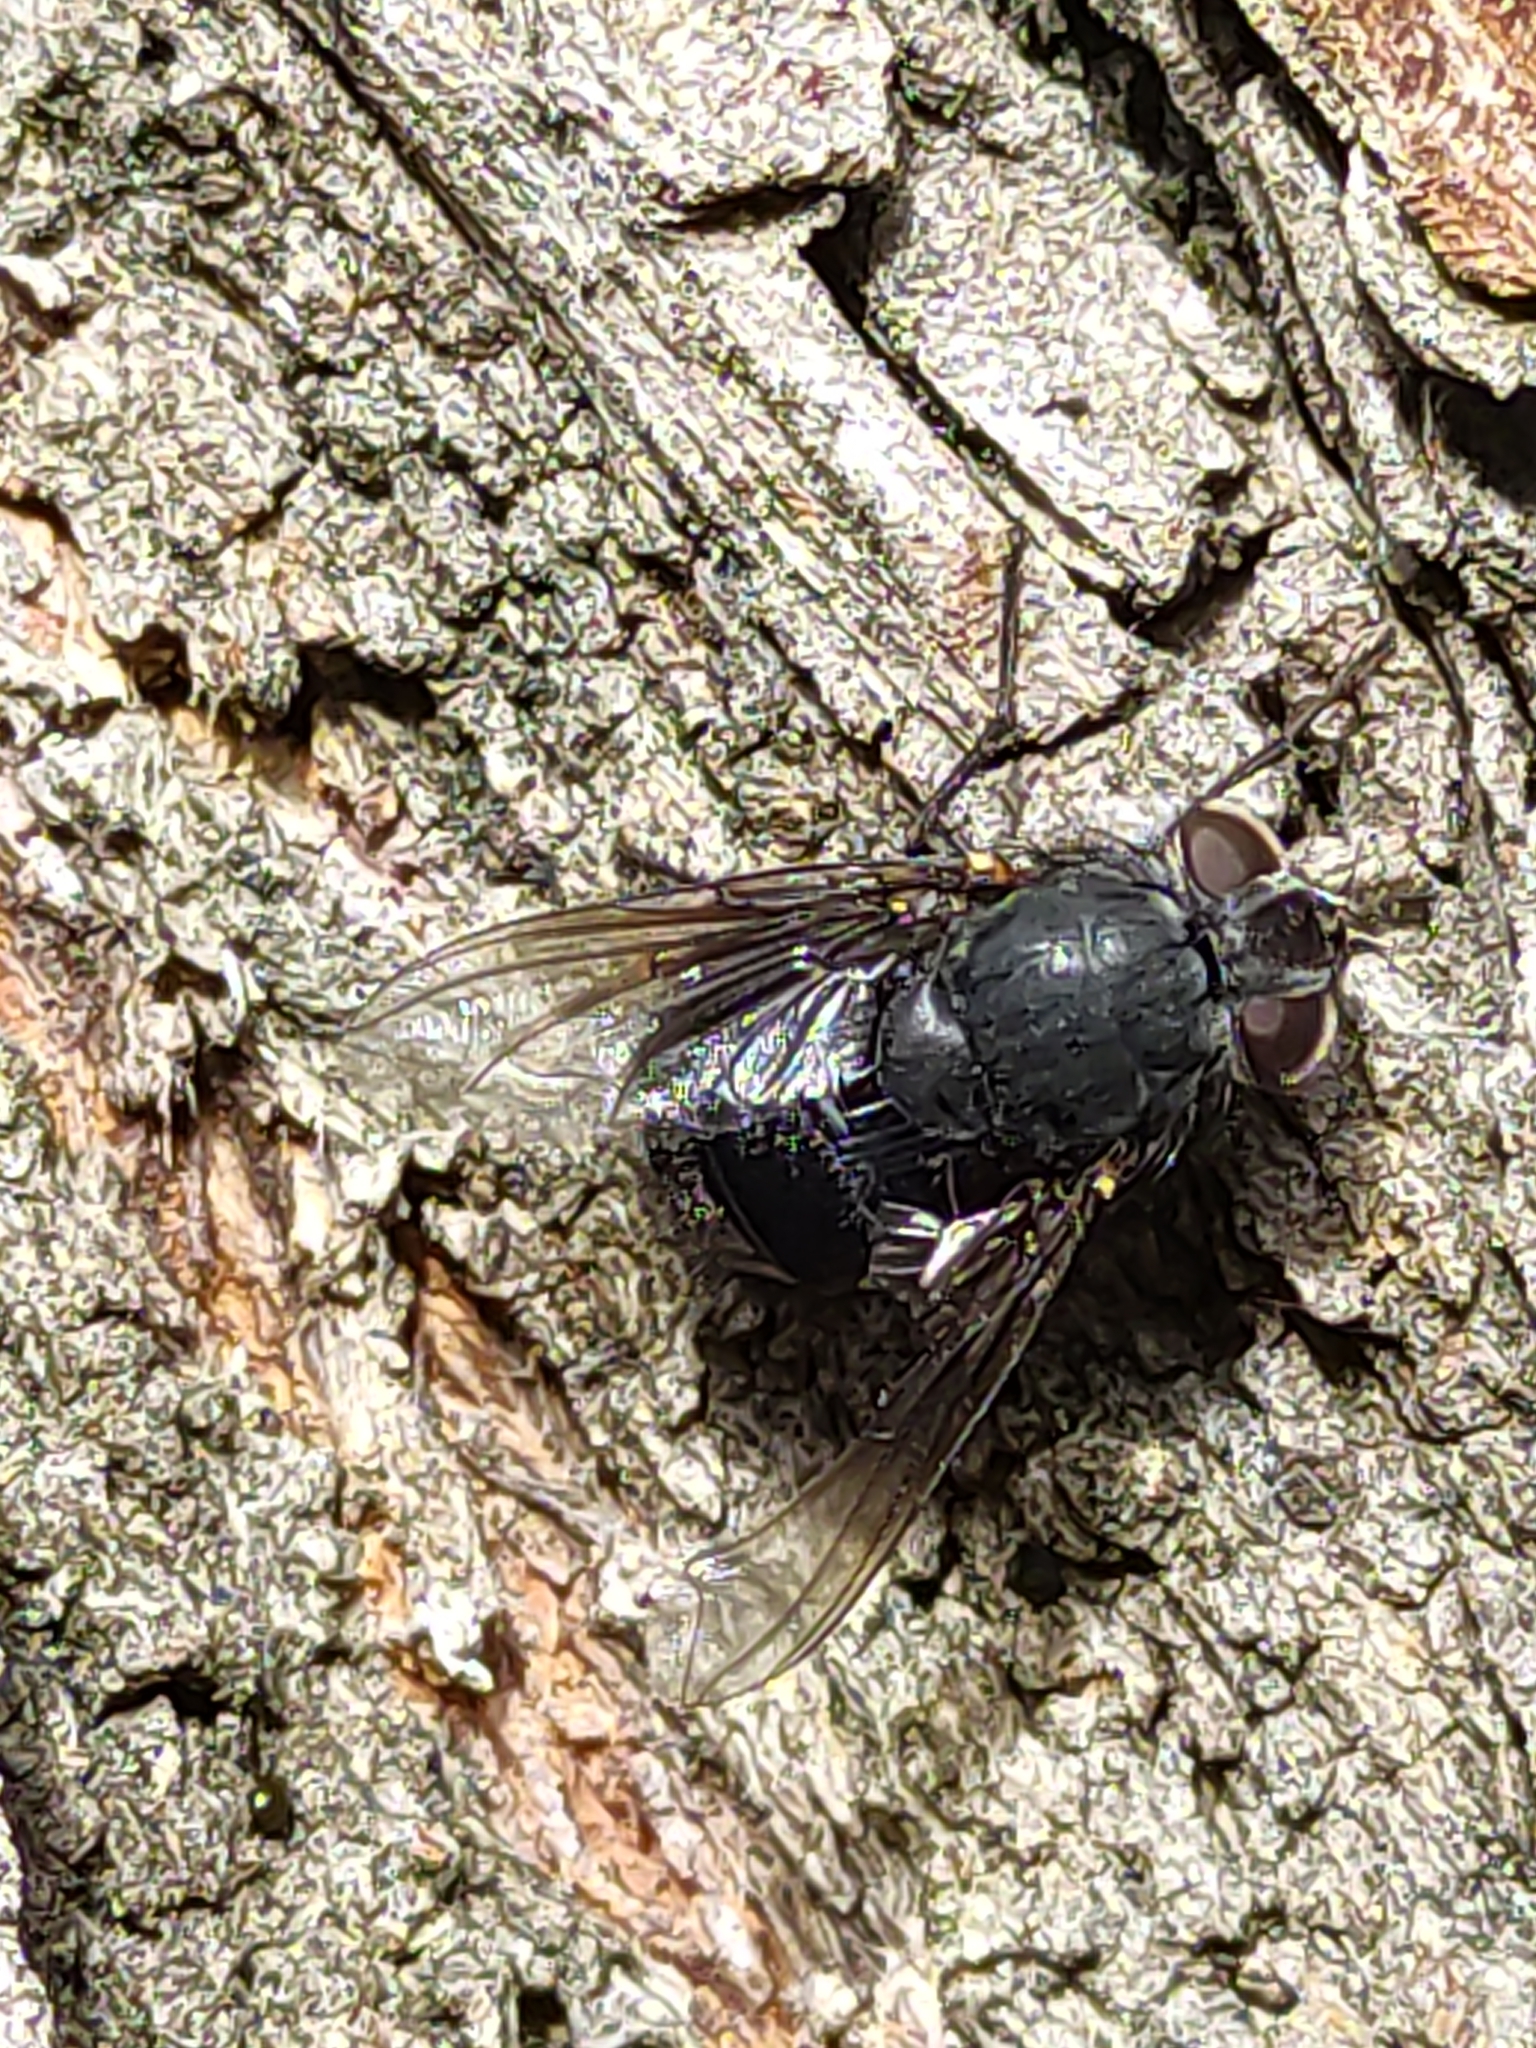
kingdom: Animalia
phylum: Arthropoda
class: Insecta
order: Diptera
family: Calliphoridae
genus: Calliphora
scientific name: Calliphora quadrimaculata
